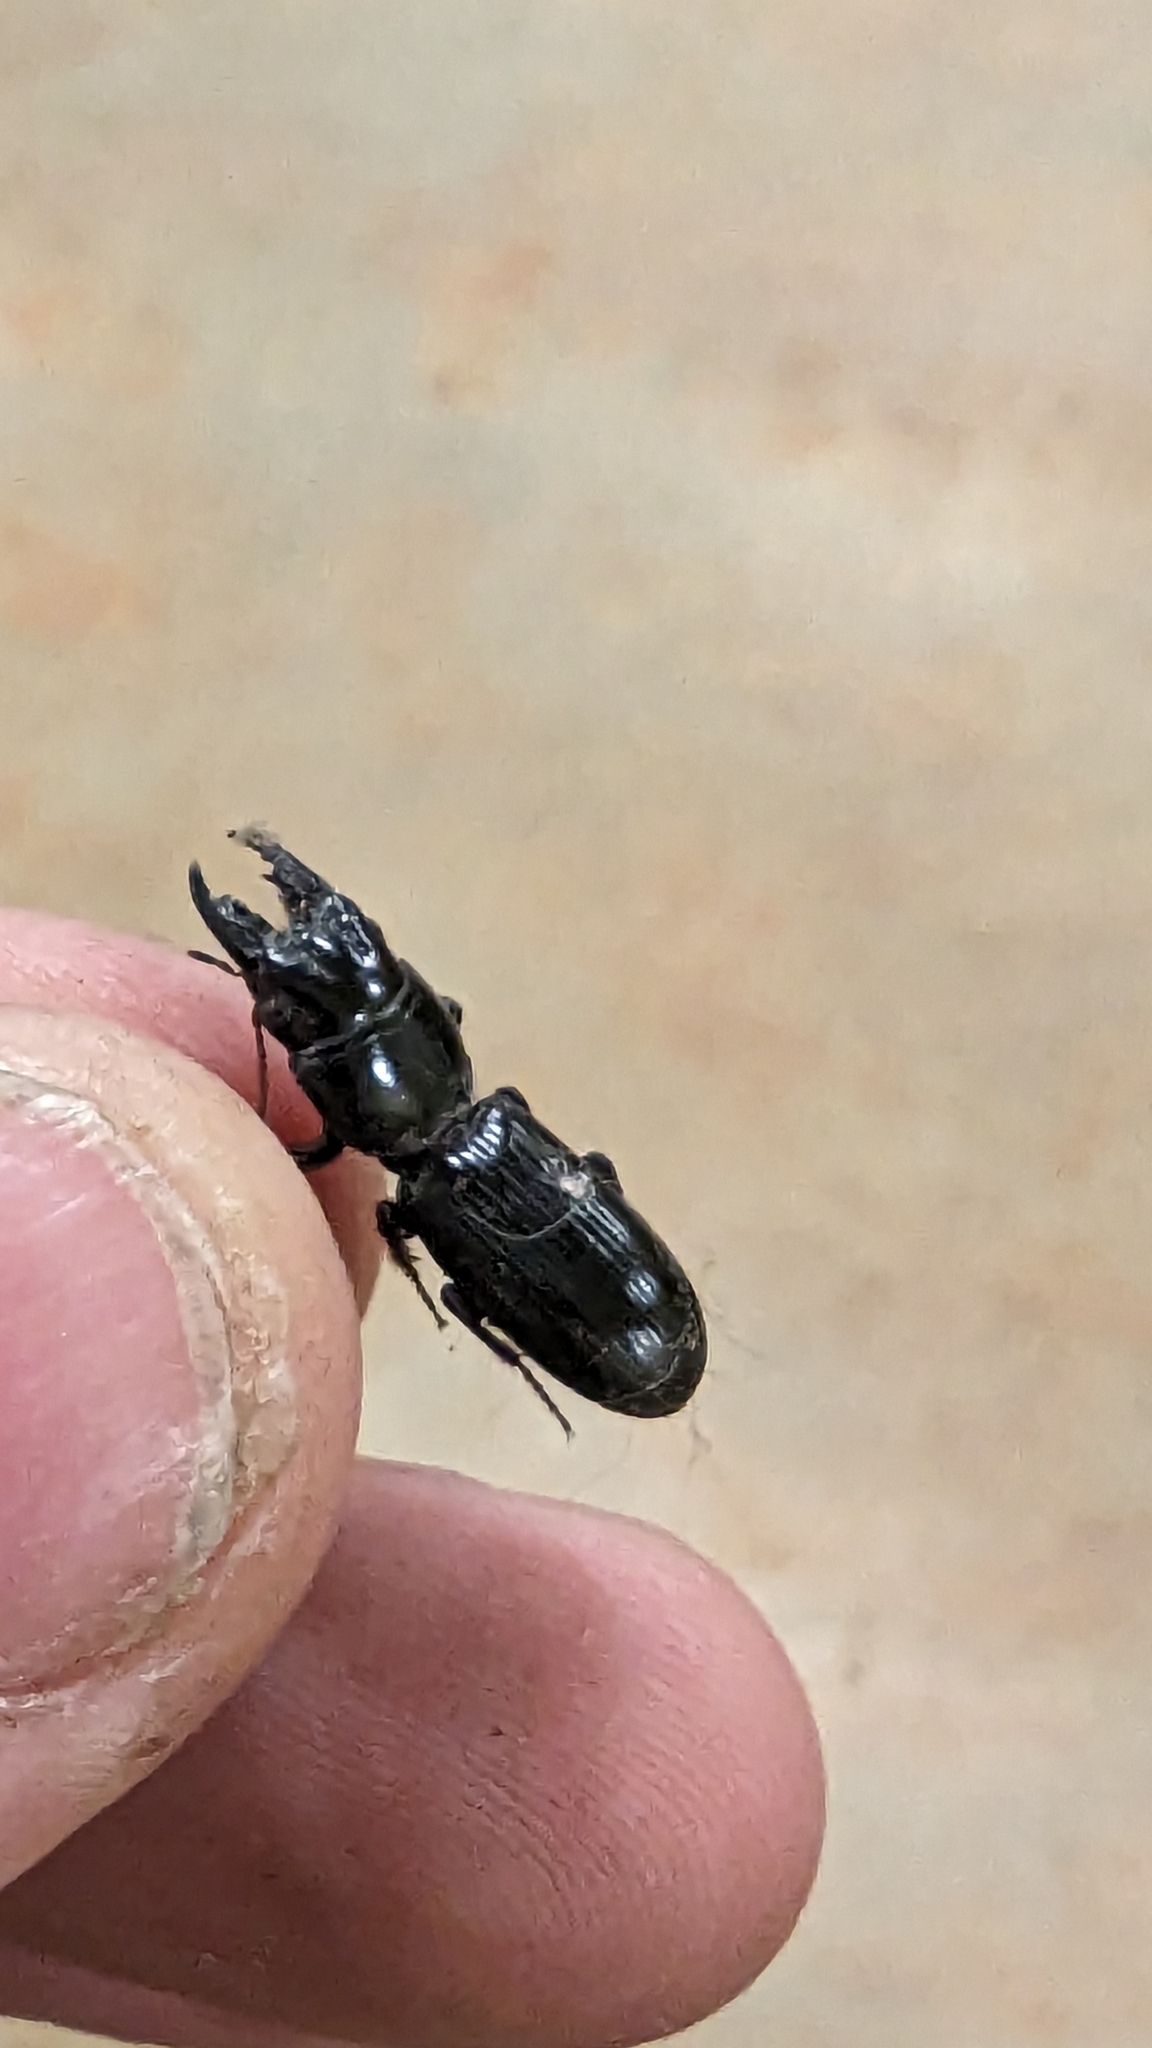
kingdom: Animalia
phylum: Arthropoda
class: Insecta
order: Coleoptera
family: Carabidae
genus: Scarites
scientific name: Scarites subterraneus
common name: Big-headed ground beetle
